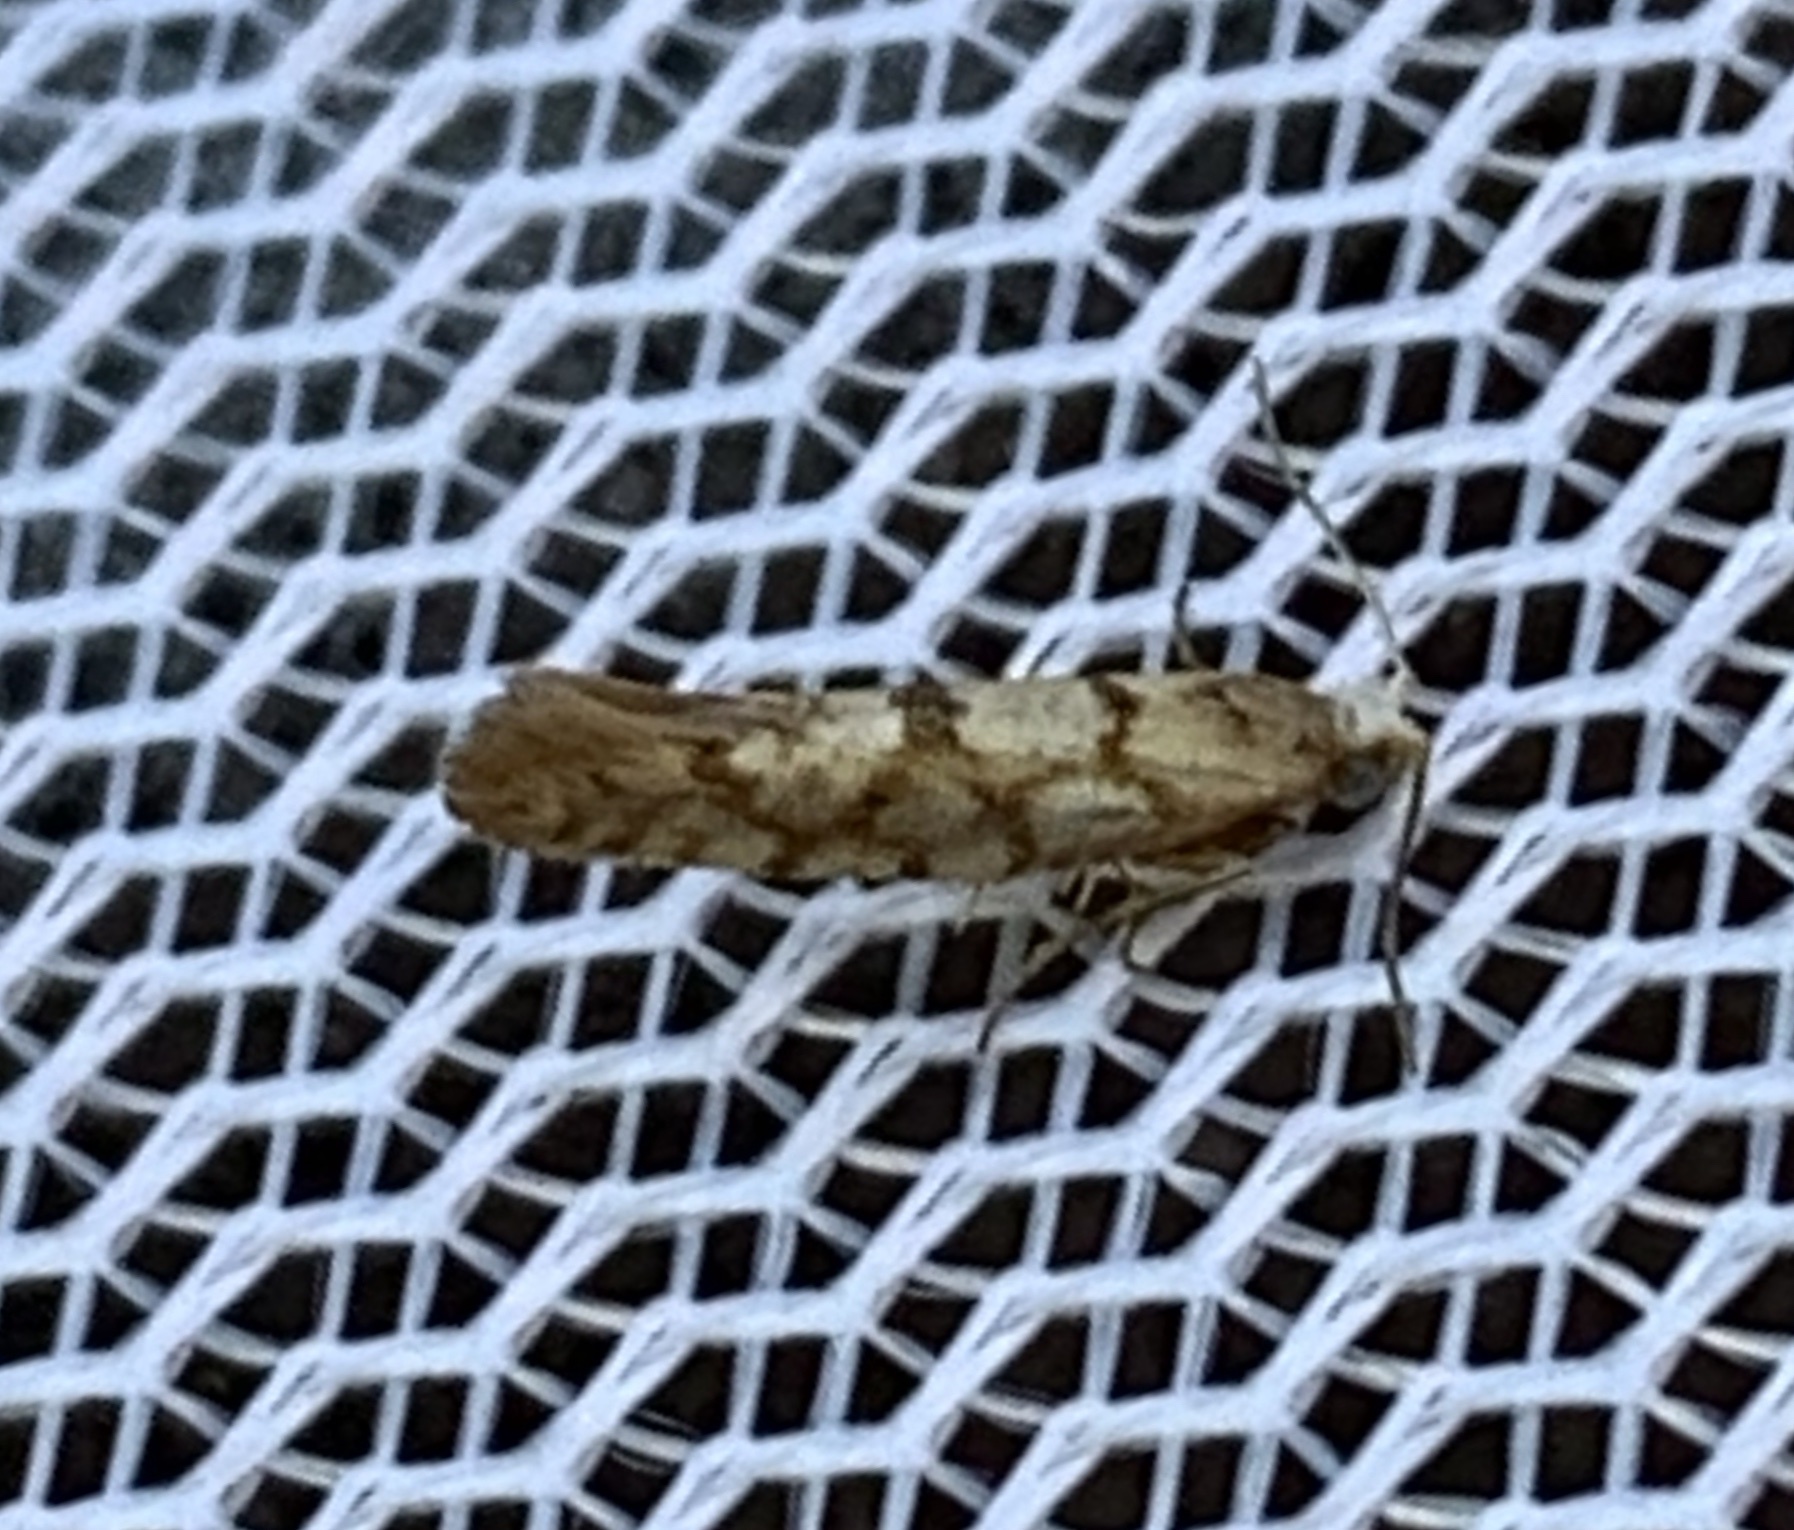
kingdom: Animalia
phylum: Arthropoda
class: Insecta
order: Lepidoptera
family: Argyresthiidae
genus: Argyresthia
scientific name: Argyresthia alternatella
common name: Juniper seed moth
